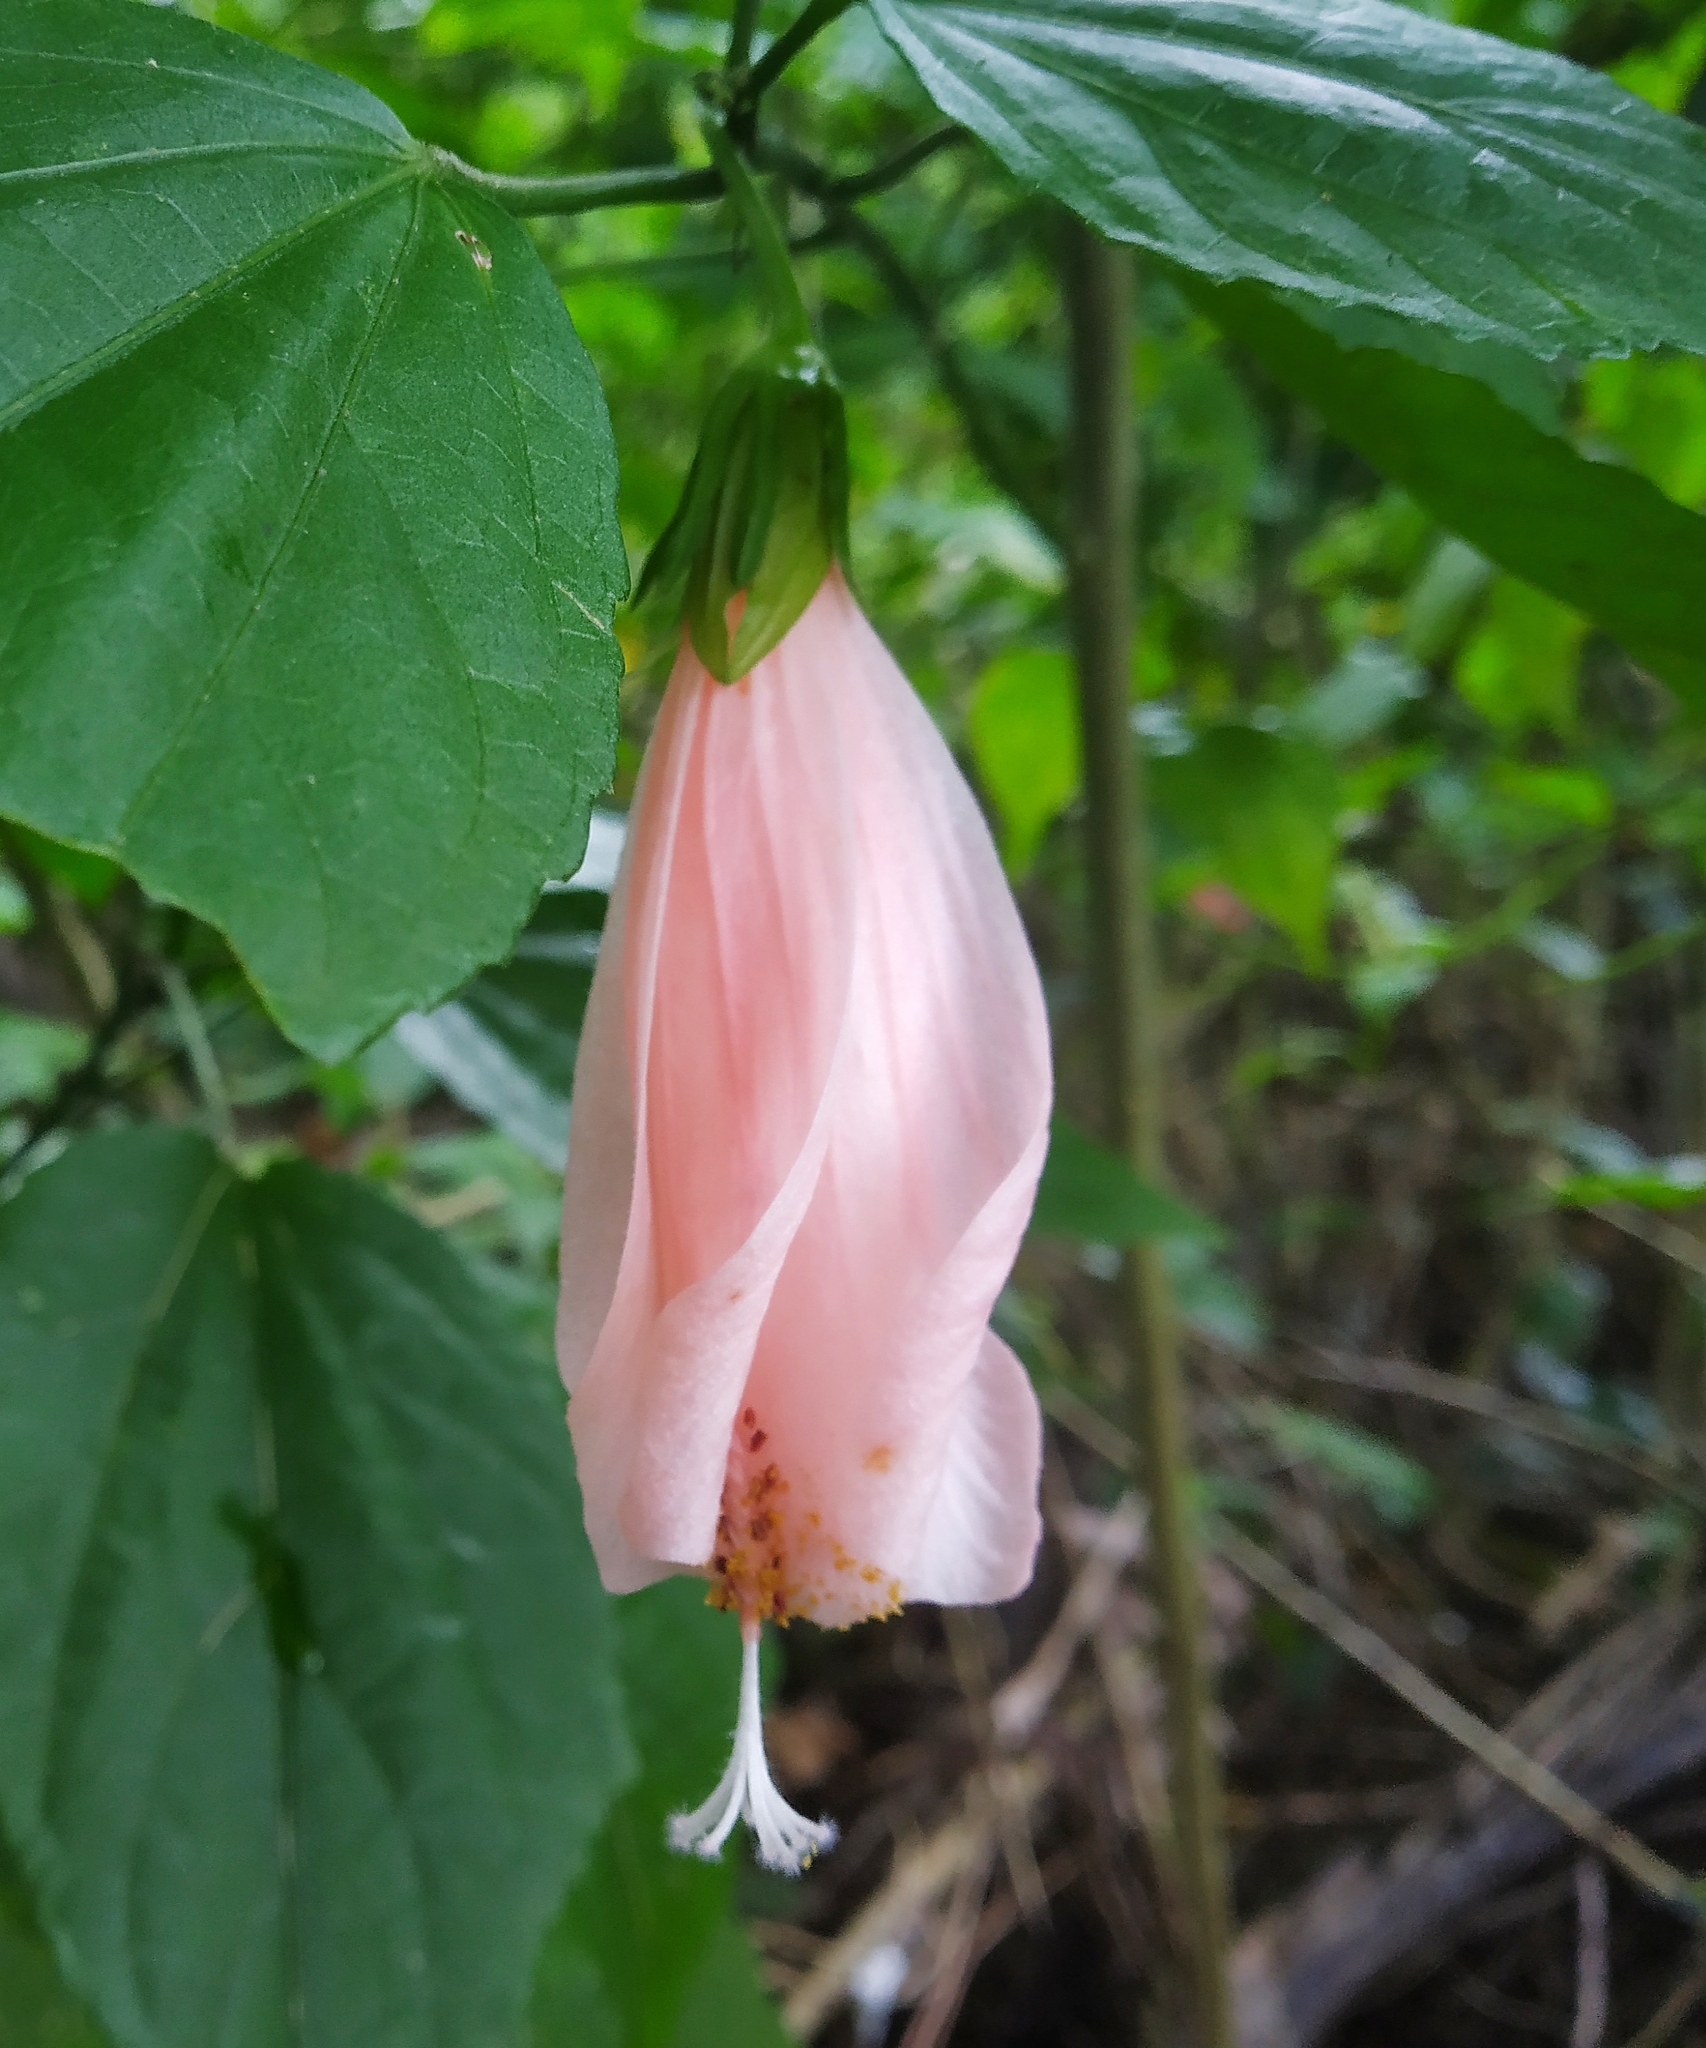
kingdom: Plantae
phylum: Tracheophyta
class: Magnoliopsida
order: Malvales
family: Malvaceae
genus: Malvaviscus
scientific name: Malvaviscus penduliflorus
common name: Mazapan
